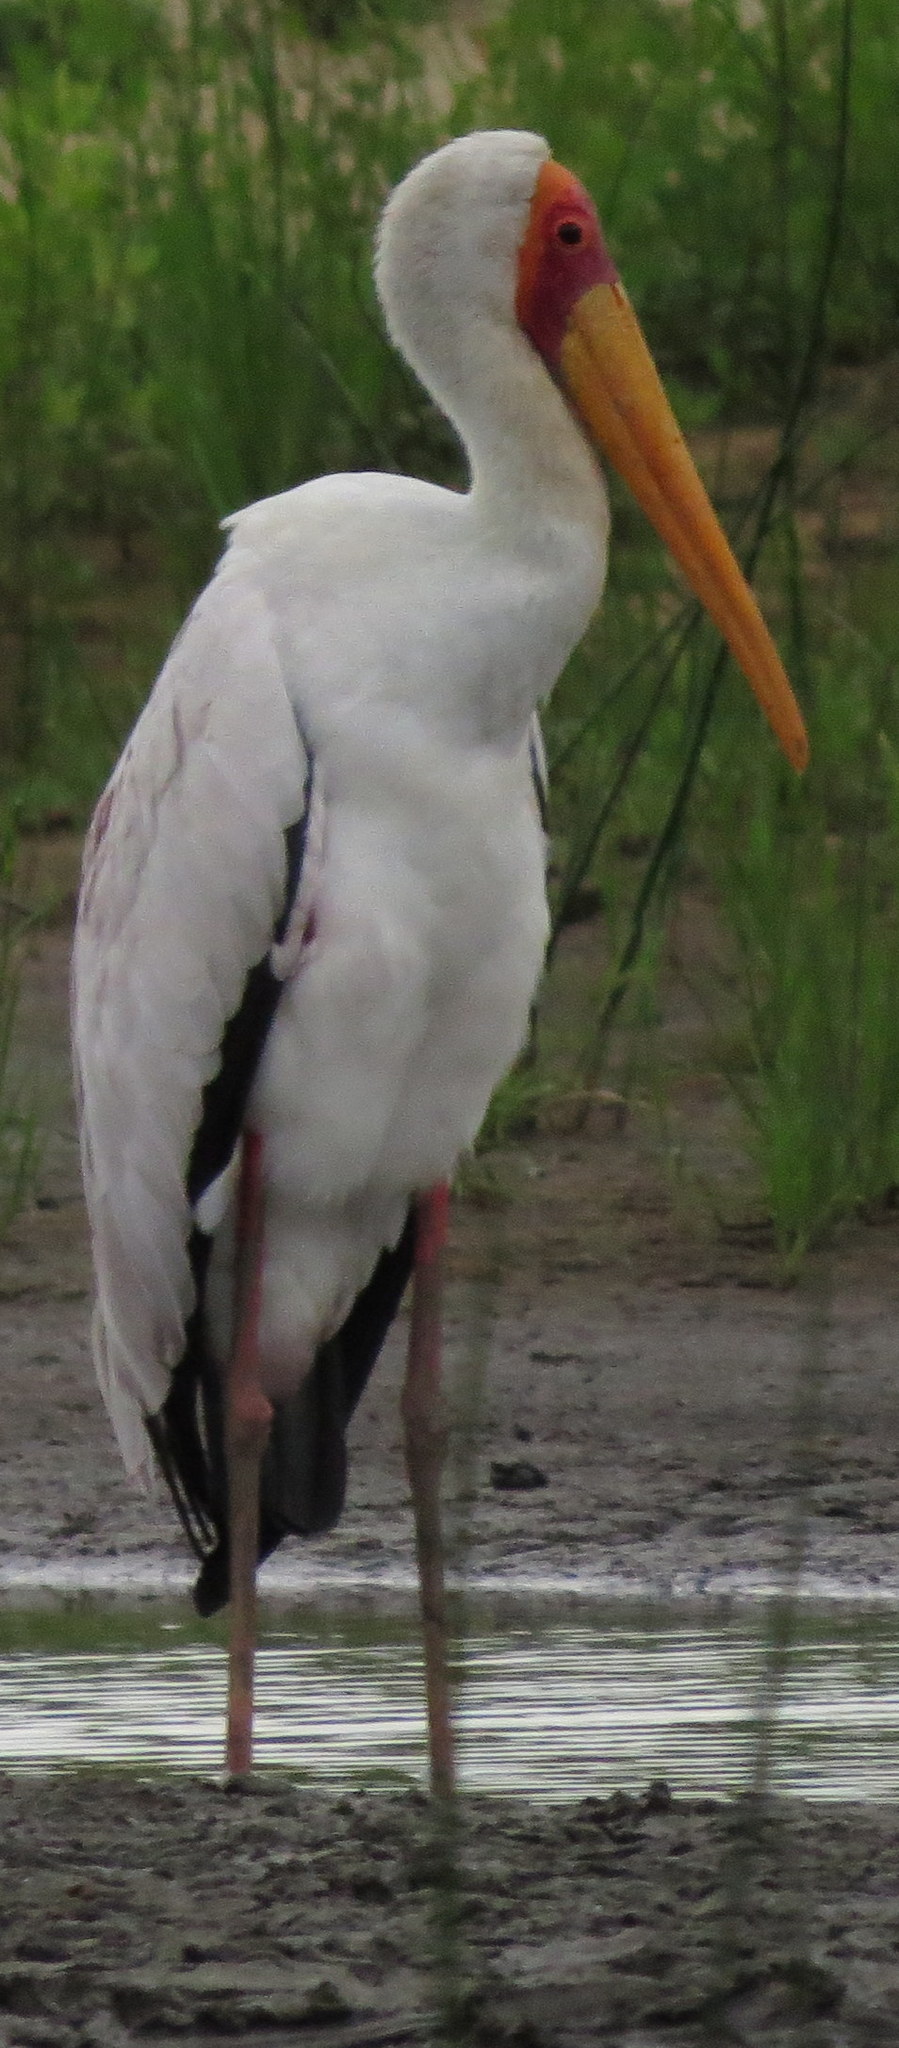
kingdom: Animalia
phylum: Chordata
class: Aves
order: Ciconiiformes
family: Ciconiidae
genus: Mycteria
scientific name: Mycteria ibis
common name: Yellow-billed stork
